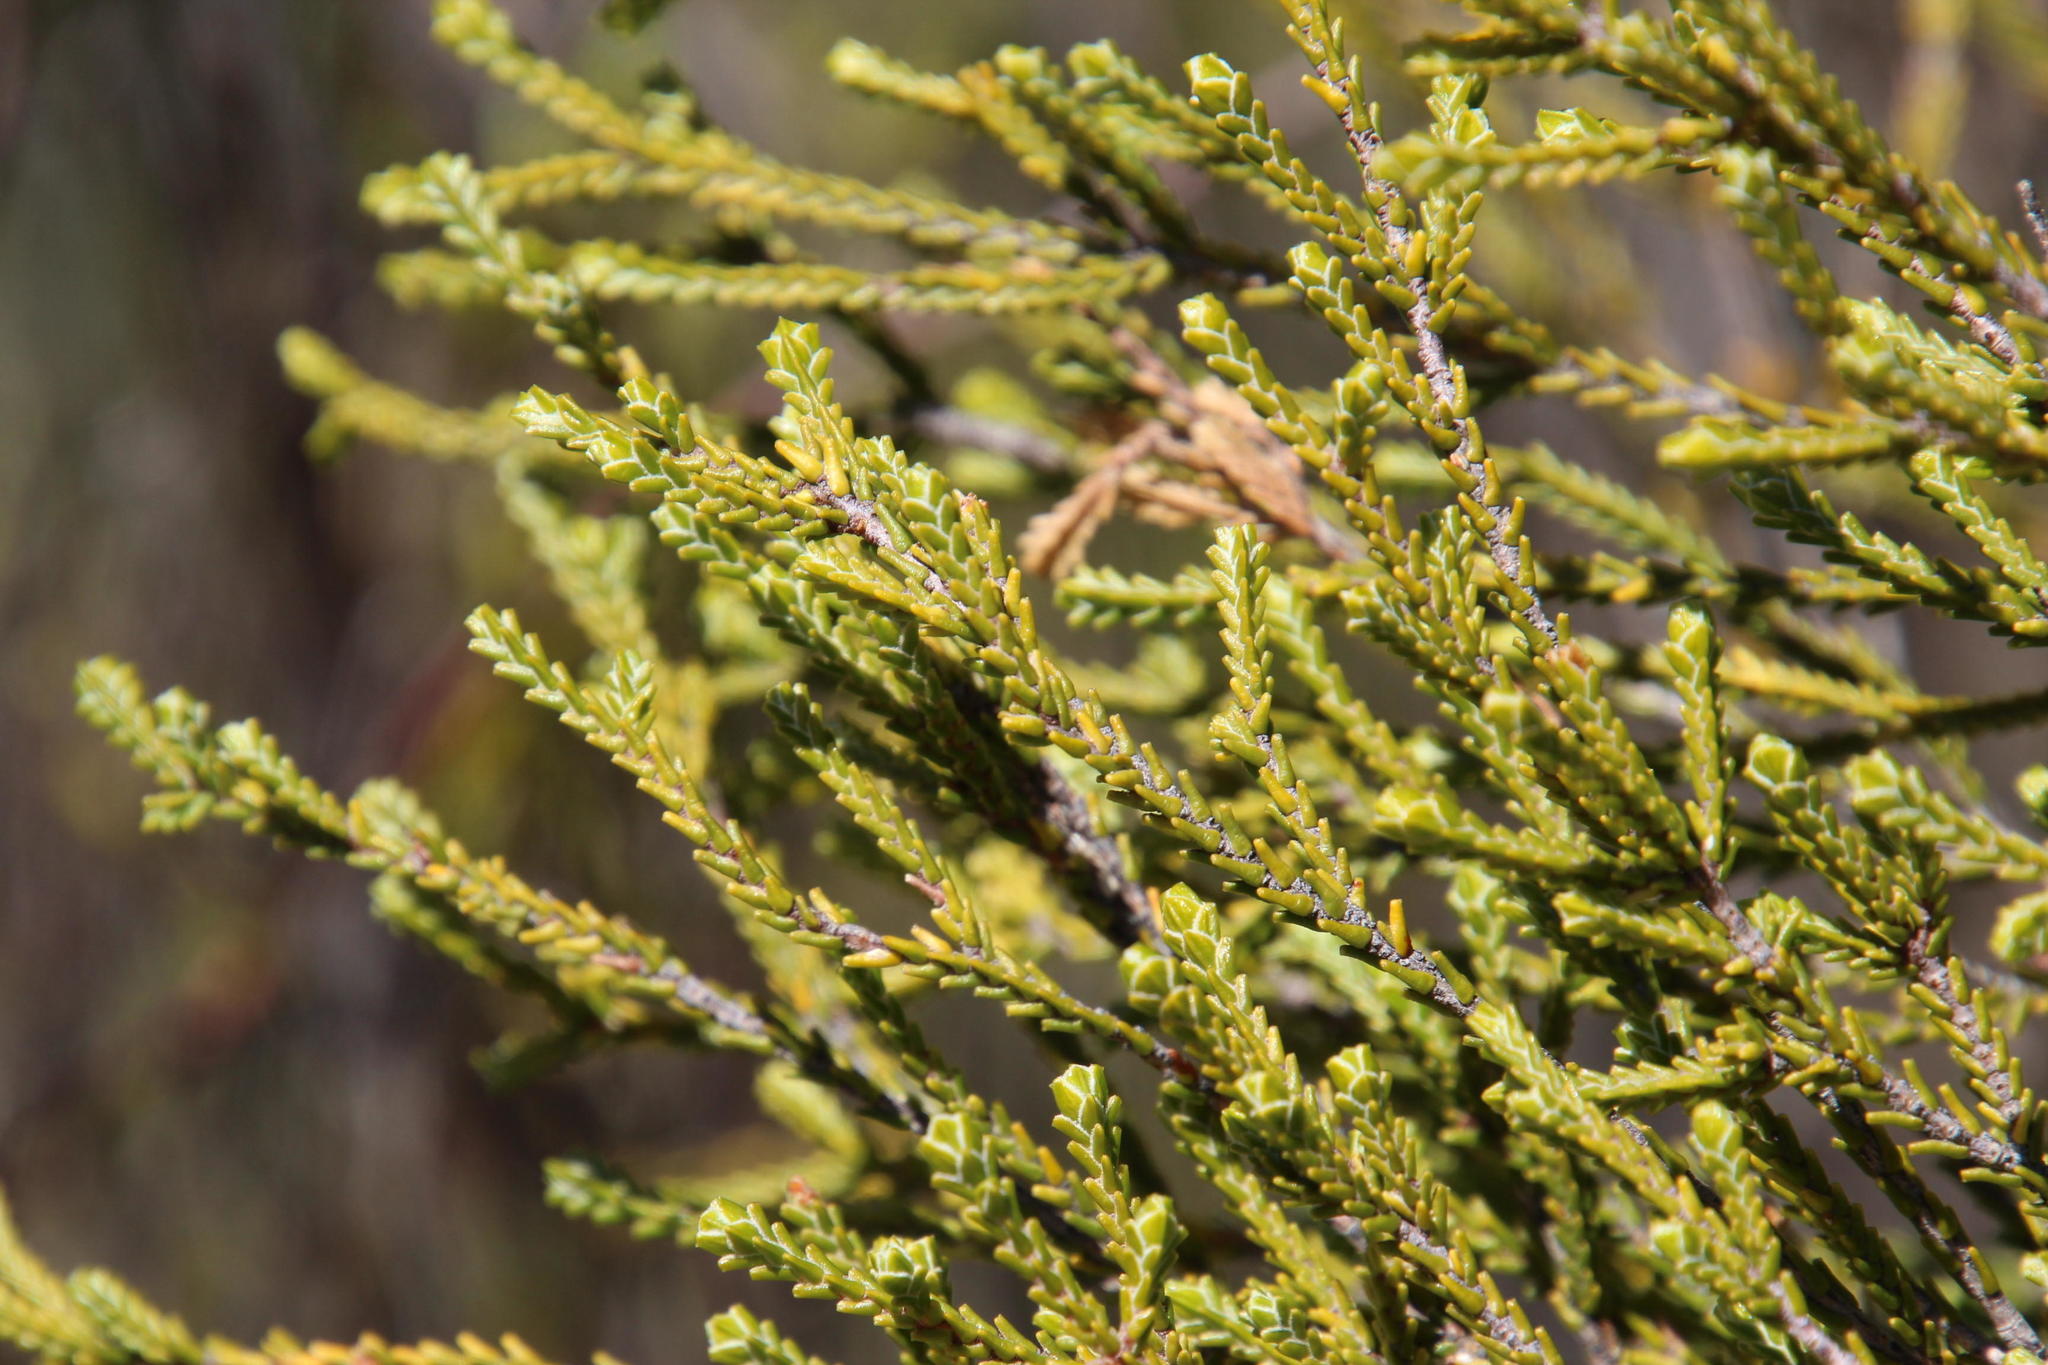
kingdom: Plantae
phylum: Tracheophyta
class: Magnoliopsida
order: Malvales
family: Thymelaeaceae
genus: Passerina
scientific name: Passerina truncata
